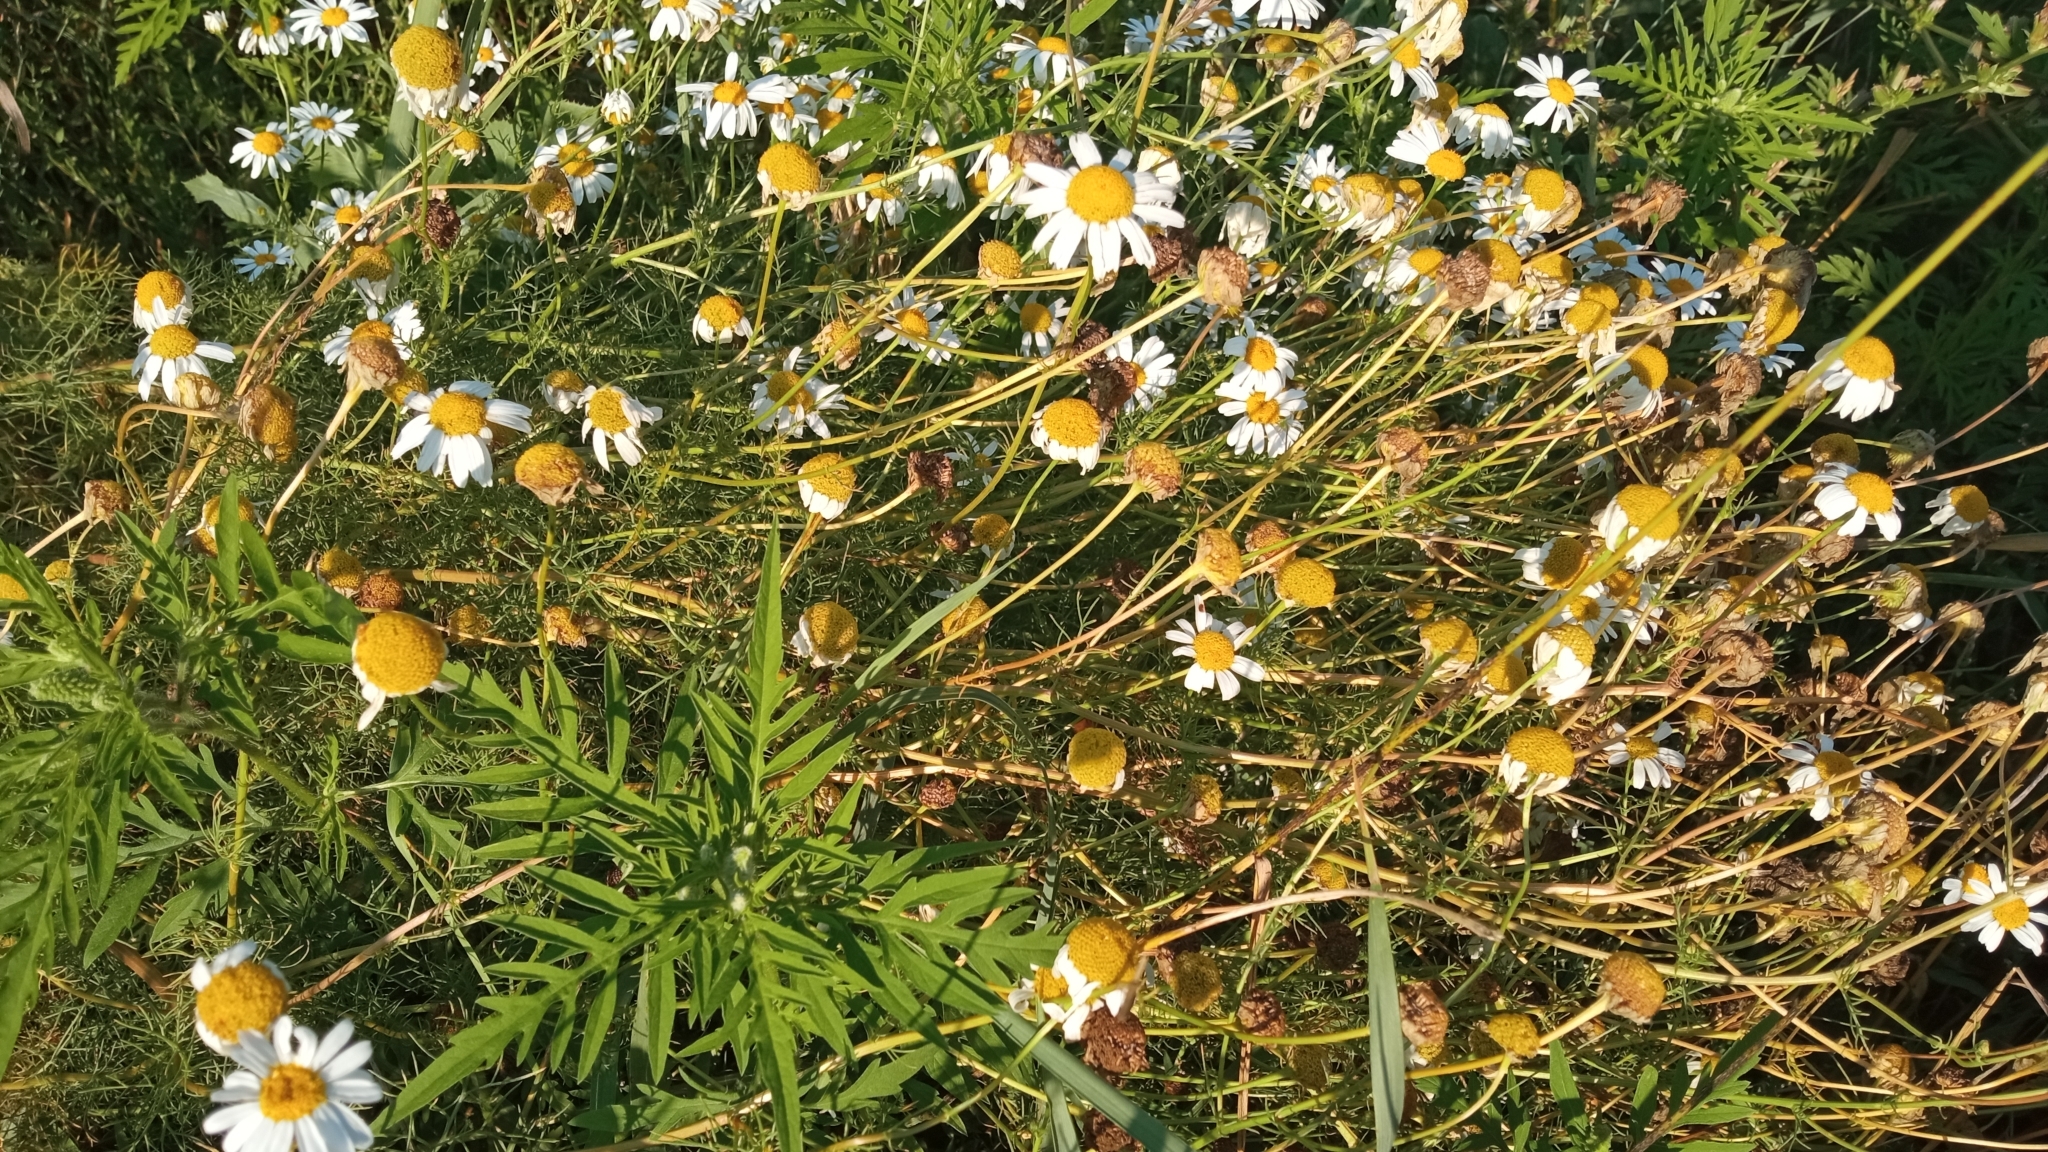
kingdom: Plantae
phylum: Tracheophyta
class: Magnoliopsida
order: Asterales
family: Asteraceae
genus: Tripleurospermum
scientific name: Tripleurospermum inodorum
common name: Scentless mayweed
